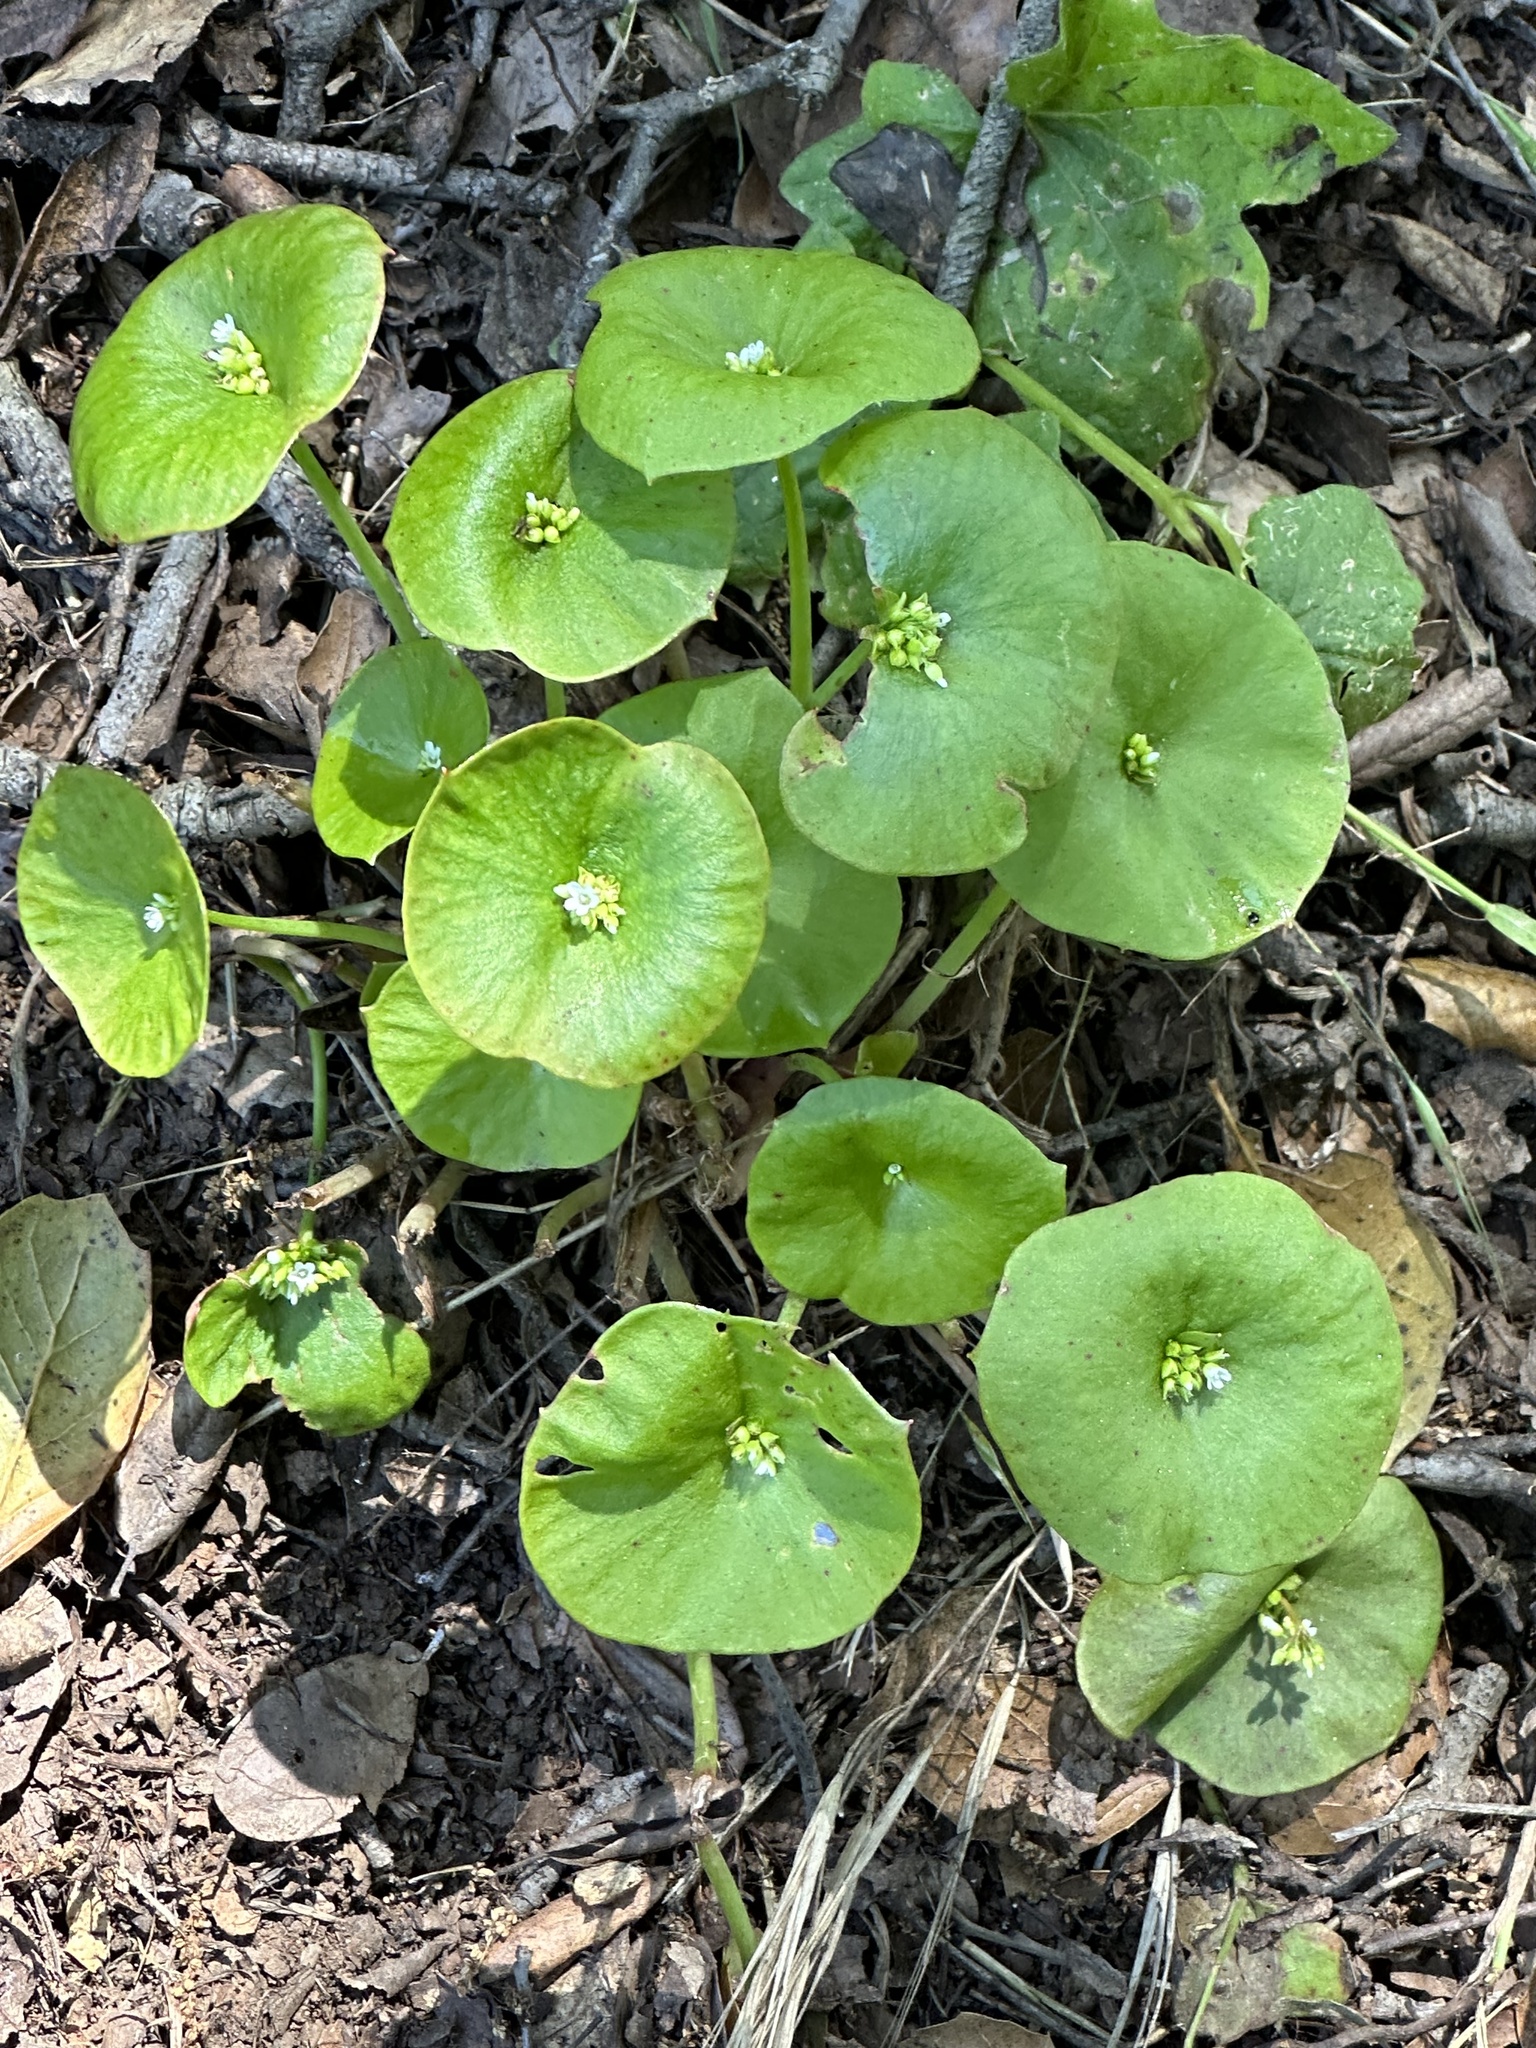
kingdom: Plantae
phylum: Tracheophyta
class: Magnoliopsida
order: Caryophyllales
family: Montiaceae
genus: Claytonia
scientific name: Claytonia perfoliata
